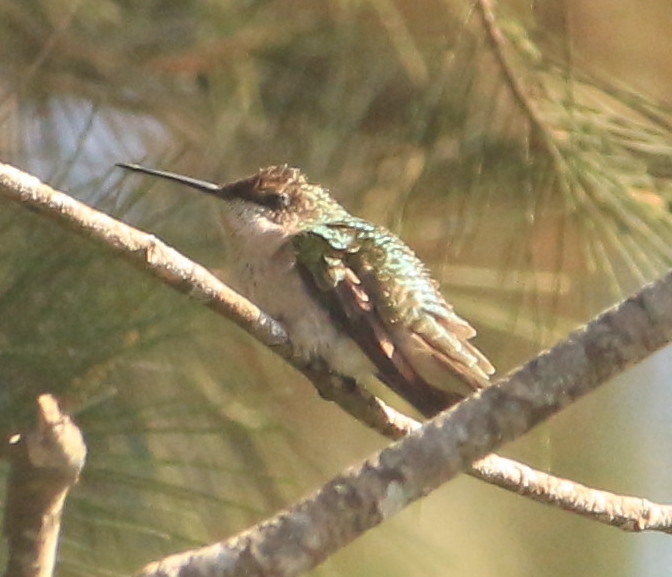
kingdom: Animalia
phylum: Chordata
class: Aves
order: Apodiformes
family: Trochilidae
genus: Archilochus
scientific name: Archilochus colubris
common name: Ruby-throated hummingbird
